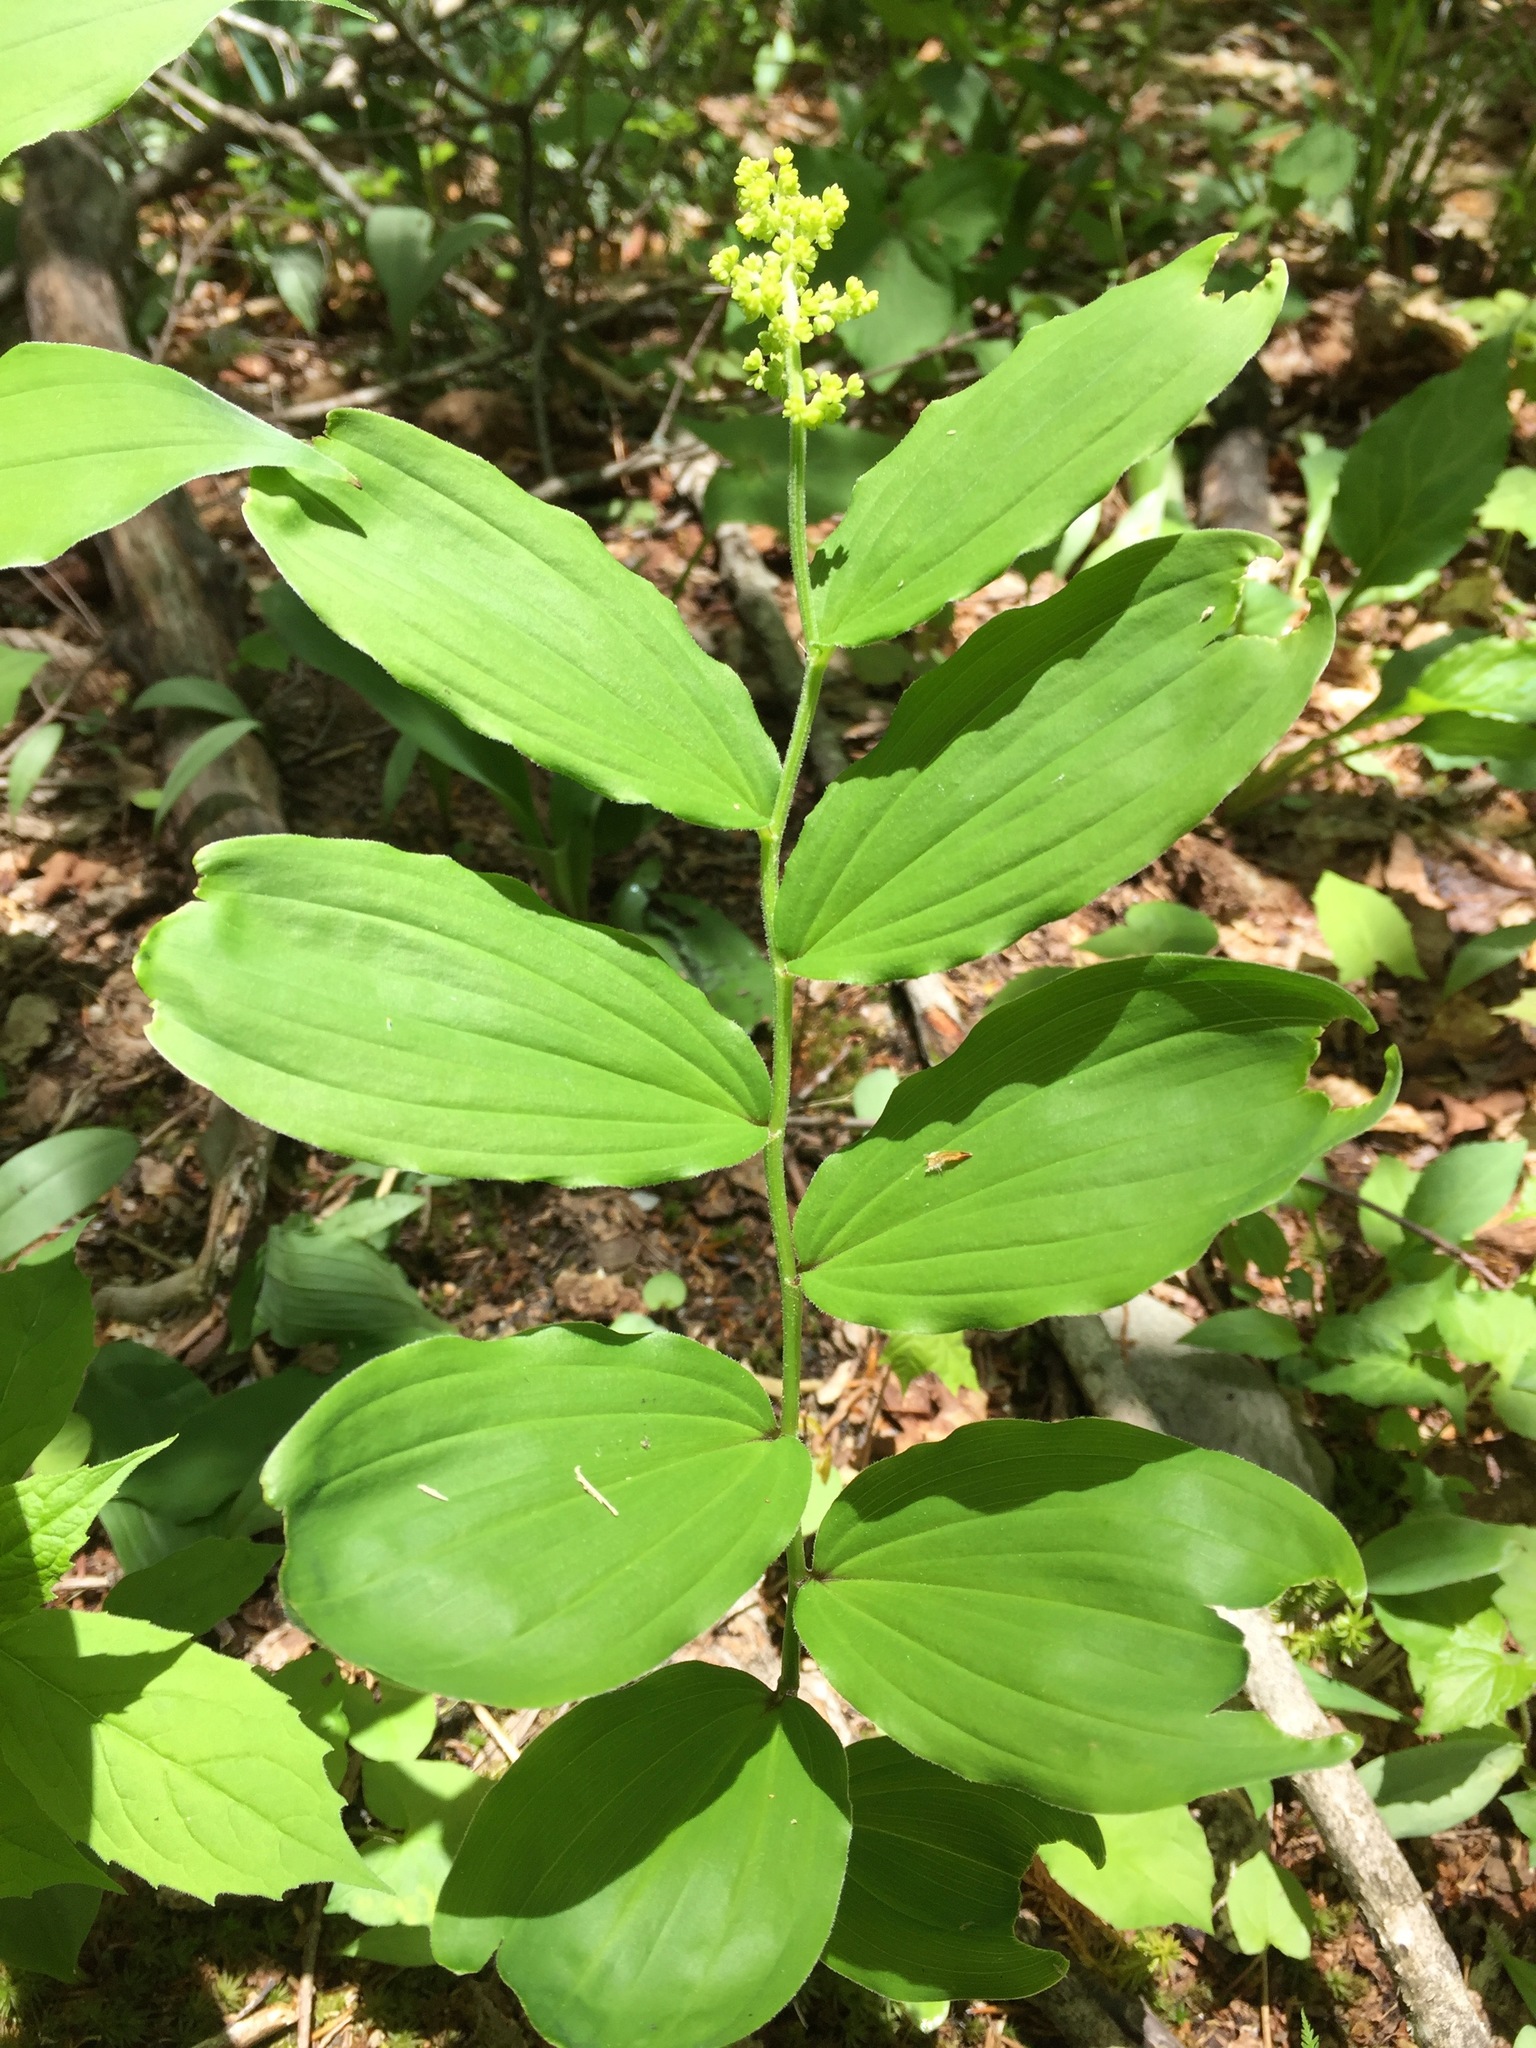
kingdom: Plantae
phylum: Tracheophyta
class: Liliopsida
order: Asparagales
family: Asparagaceae
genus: Maianthemum
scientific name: Maianthemum racemosum
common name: False spikenard
